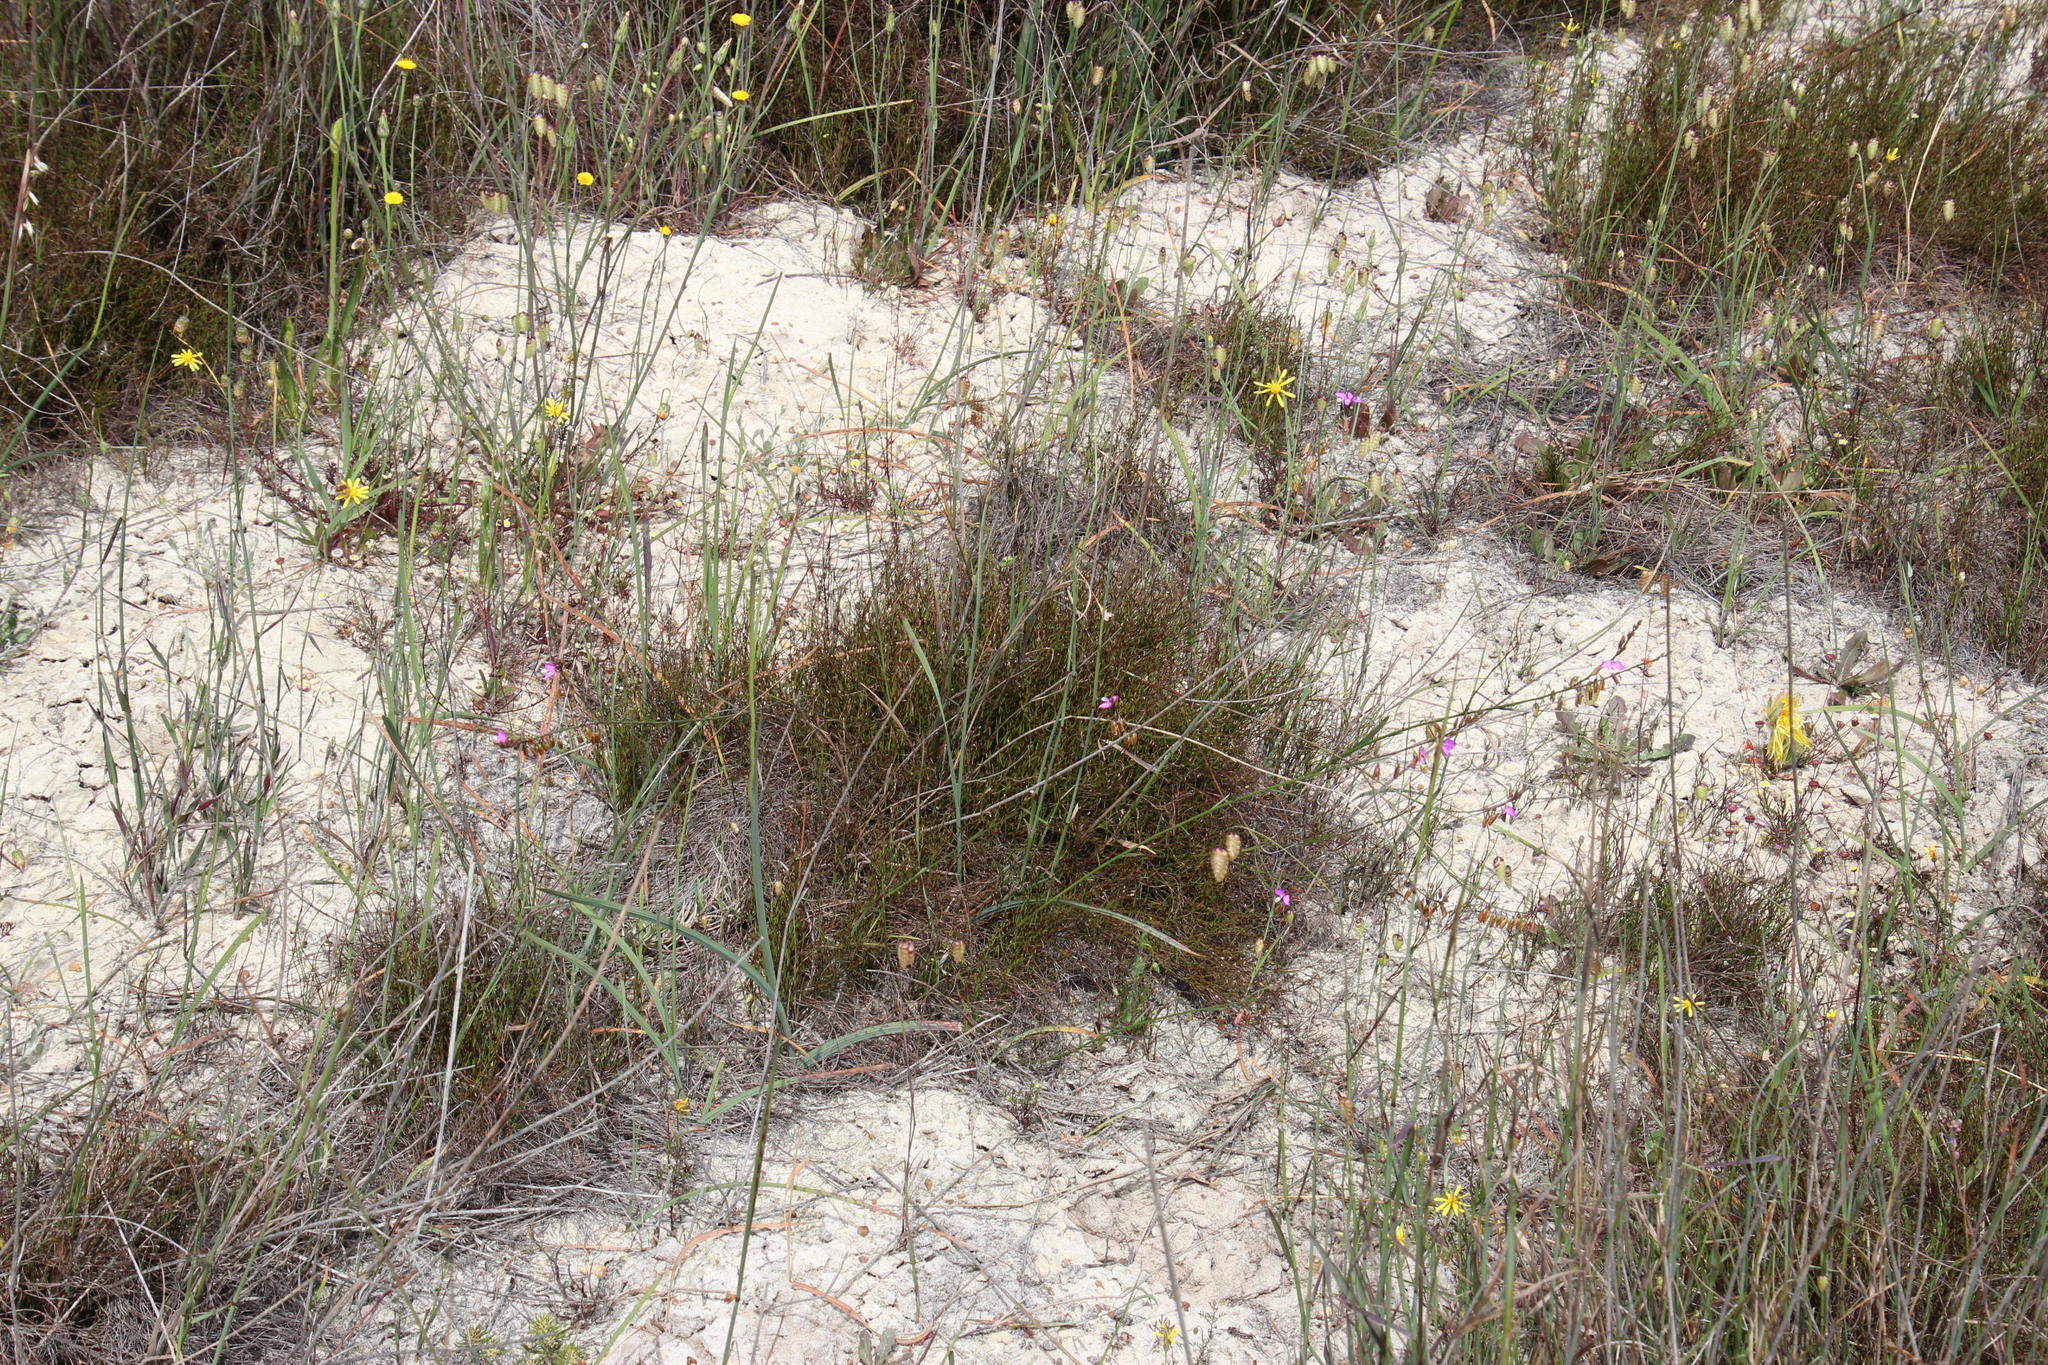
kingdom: Plantae
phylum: Tracheophyta
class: Magnoliopsida
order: Fabales
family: Polygalaceae
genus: Polygala
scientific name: Polygala garcini
